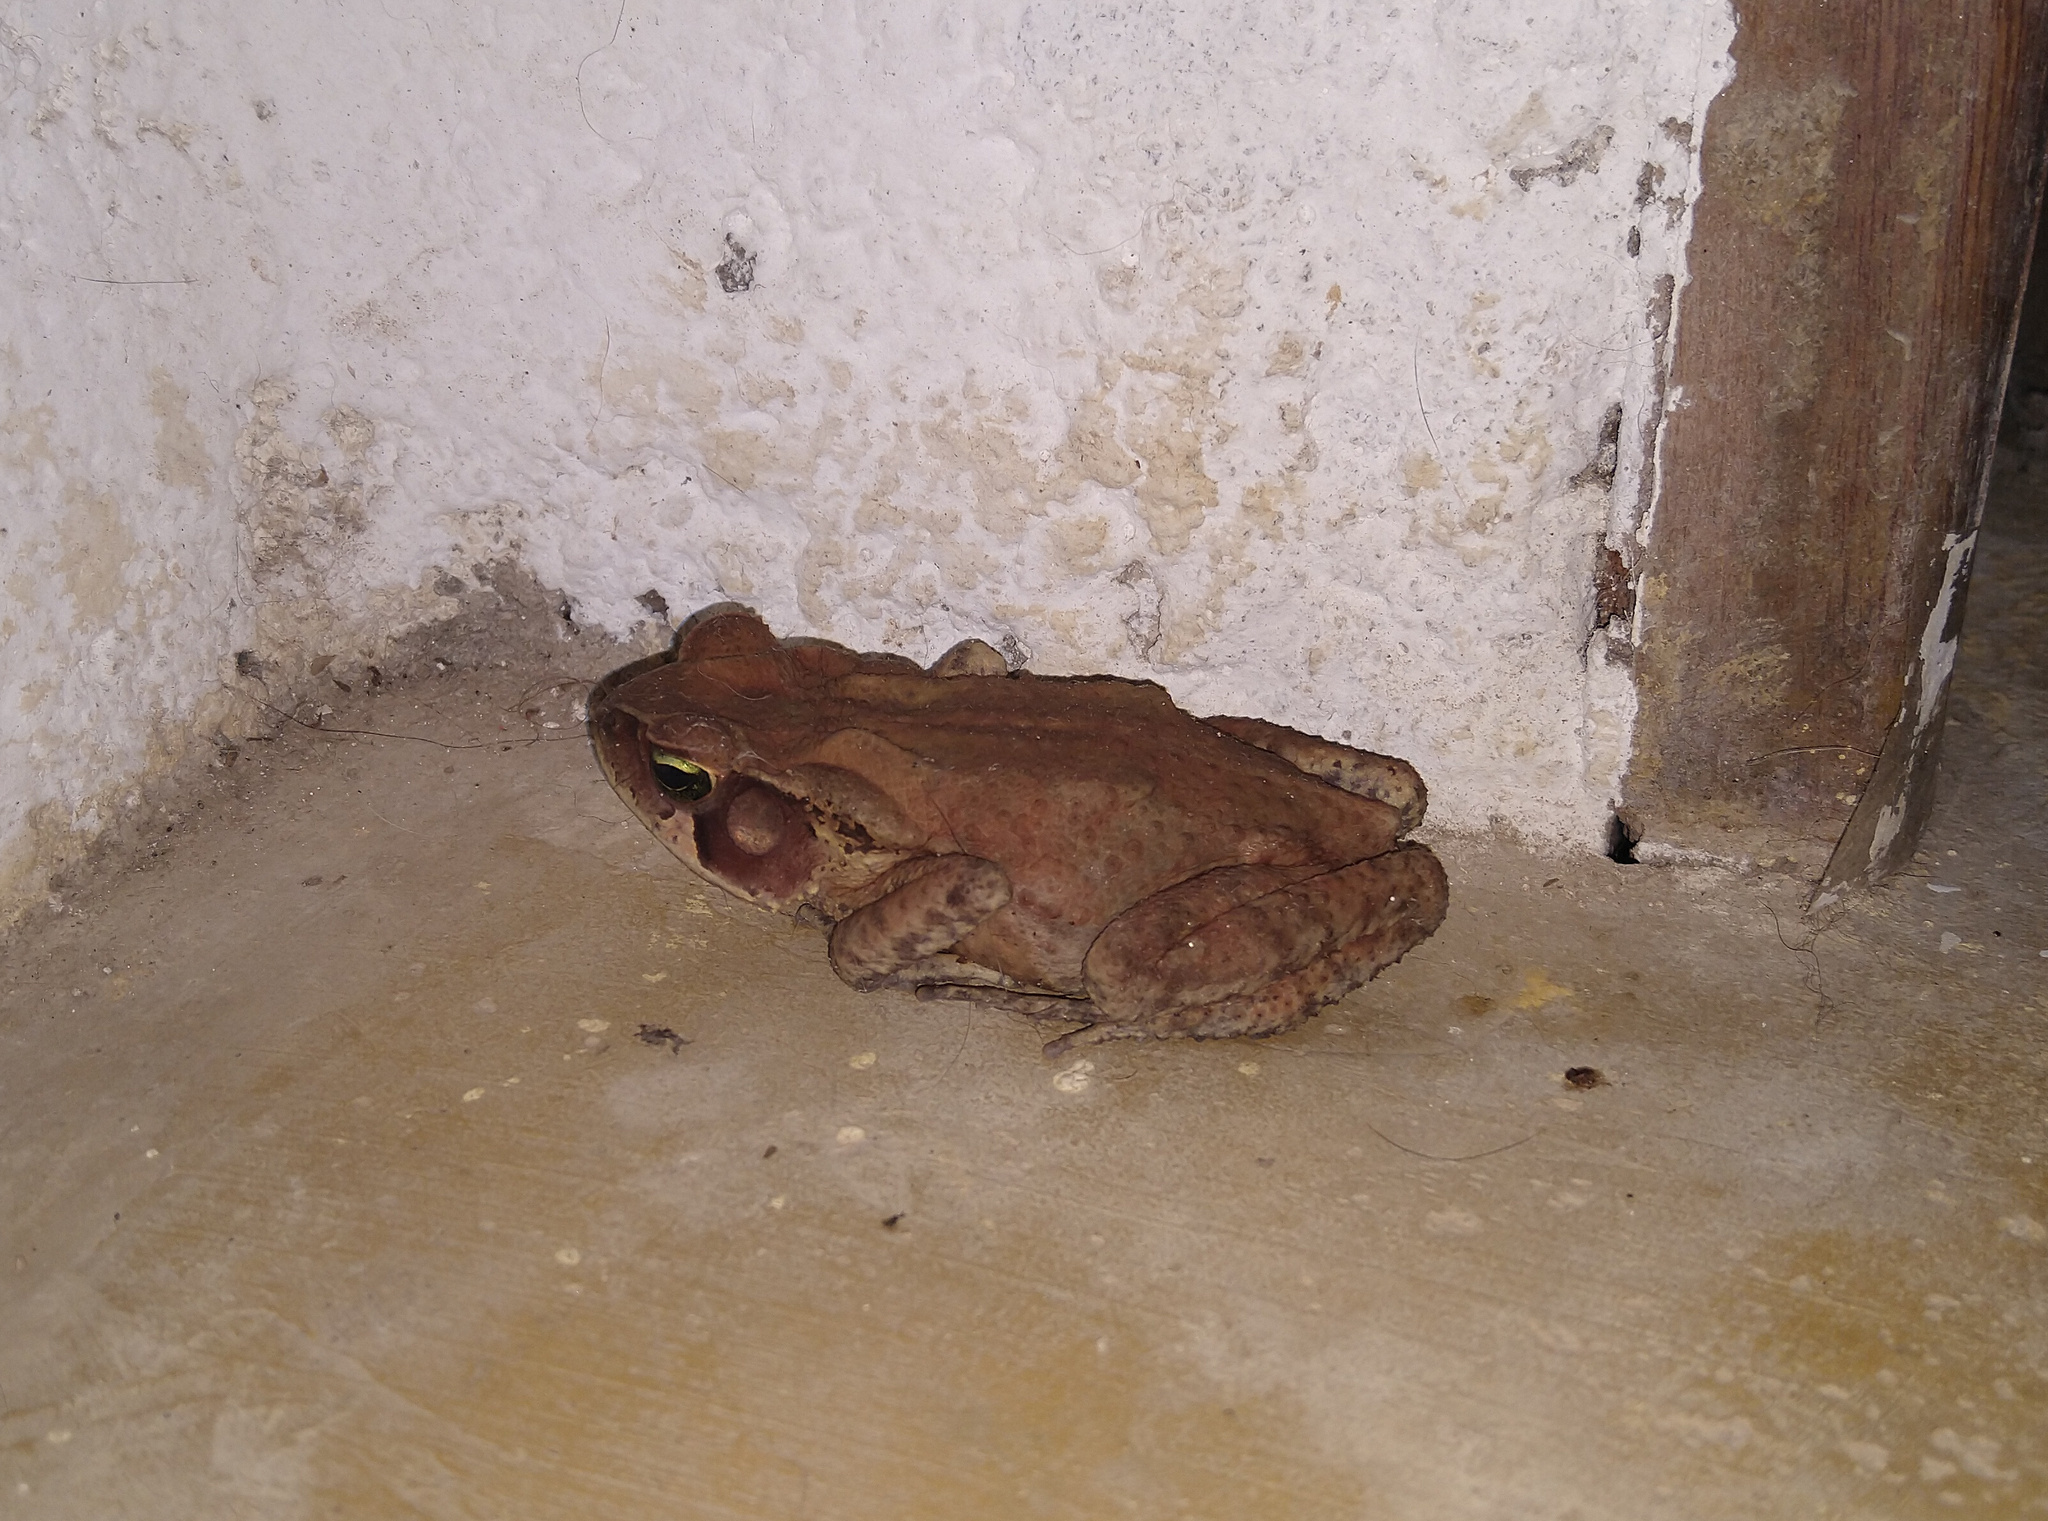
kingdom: Animalia
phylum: Chordata
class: Amphibia
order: Anura
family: Bufonidae
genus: Rhinella
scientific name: Rhinella ornata
